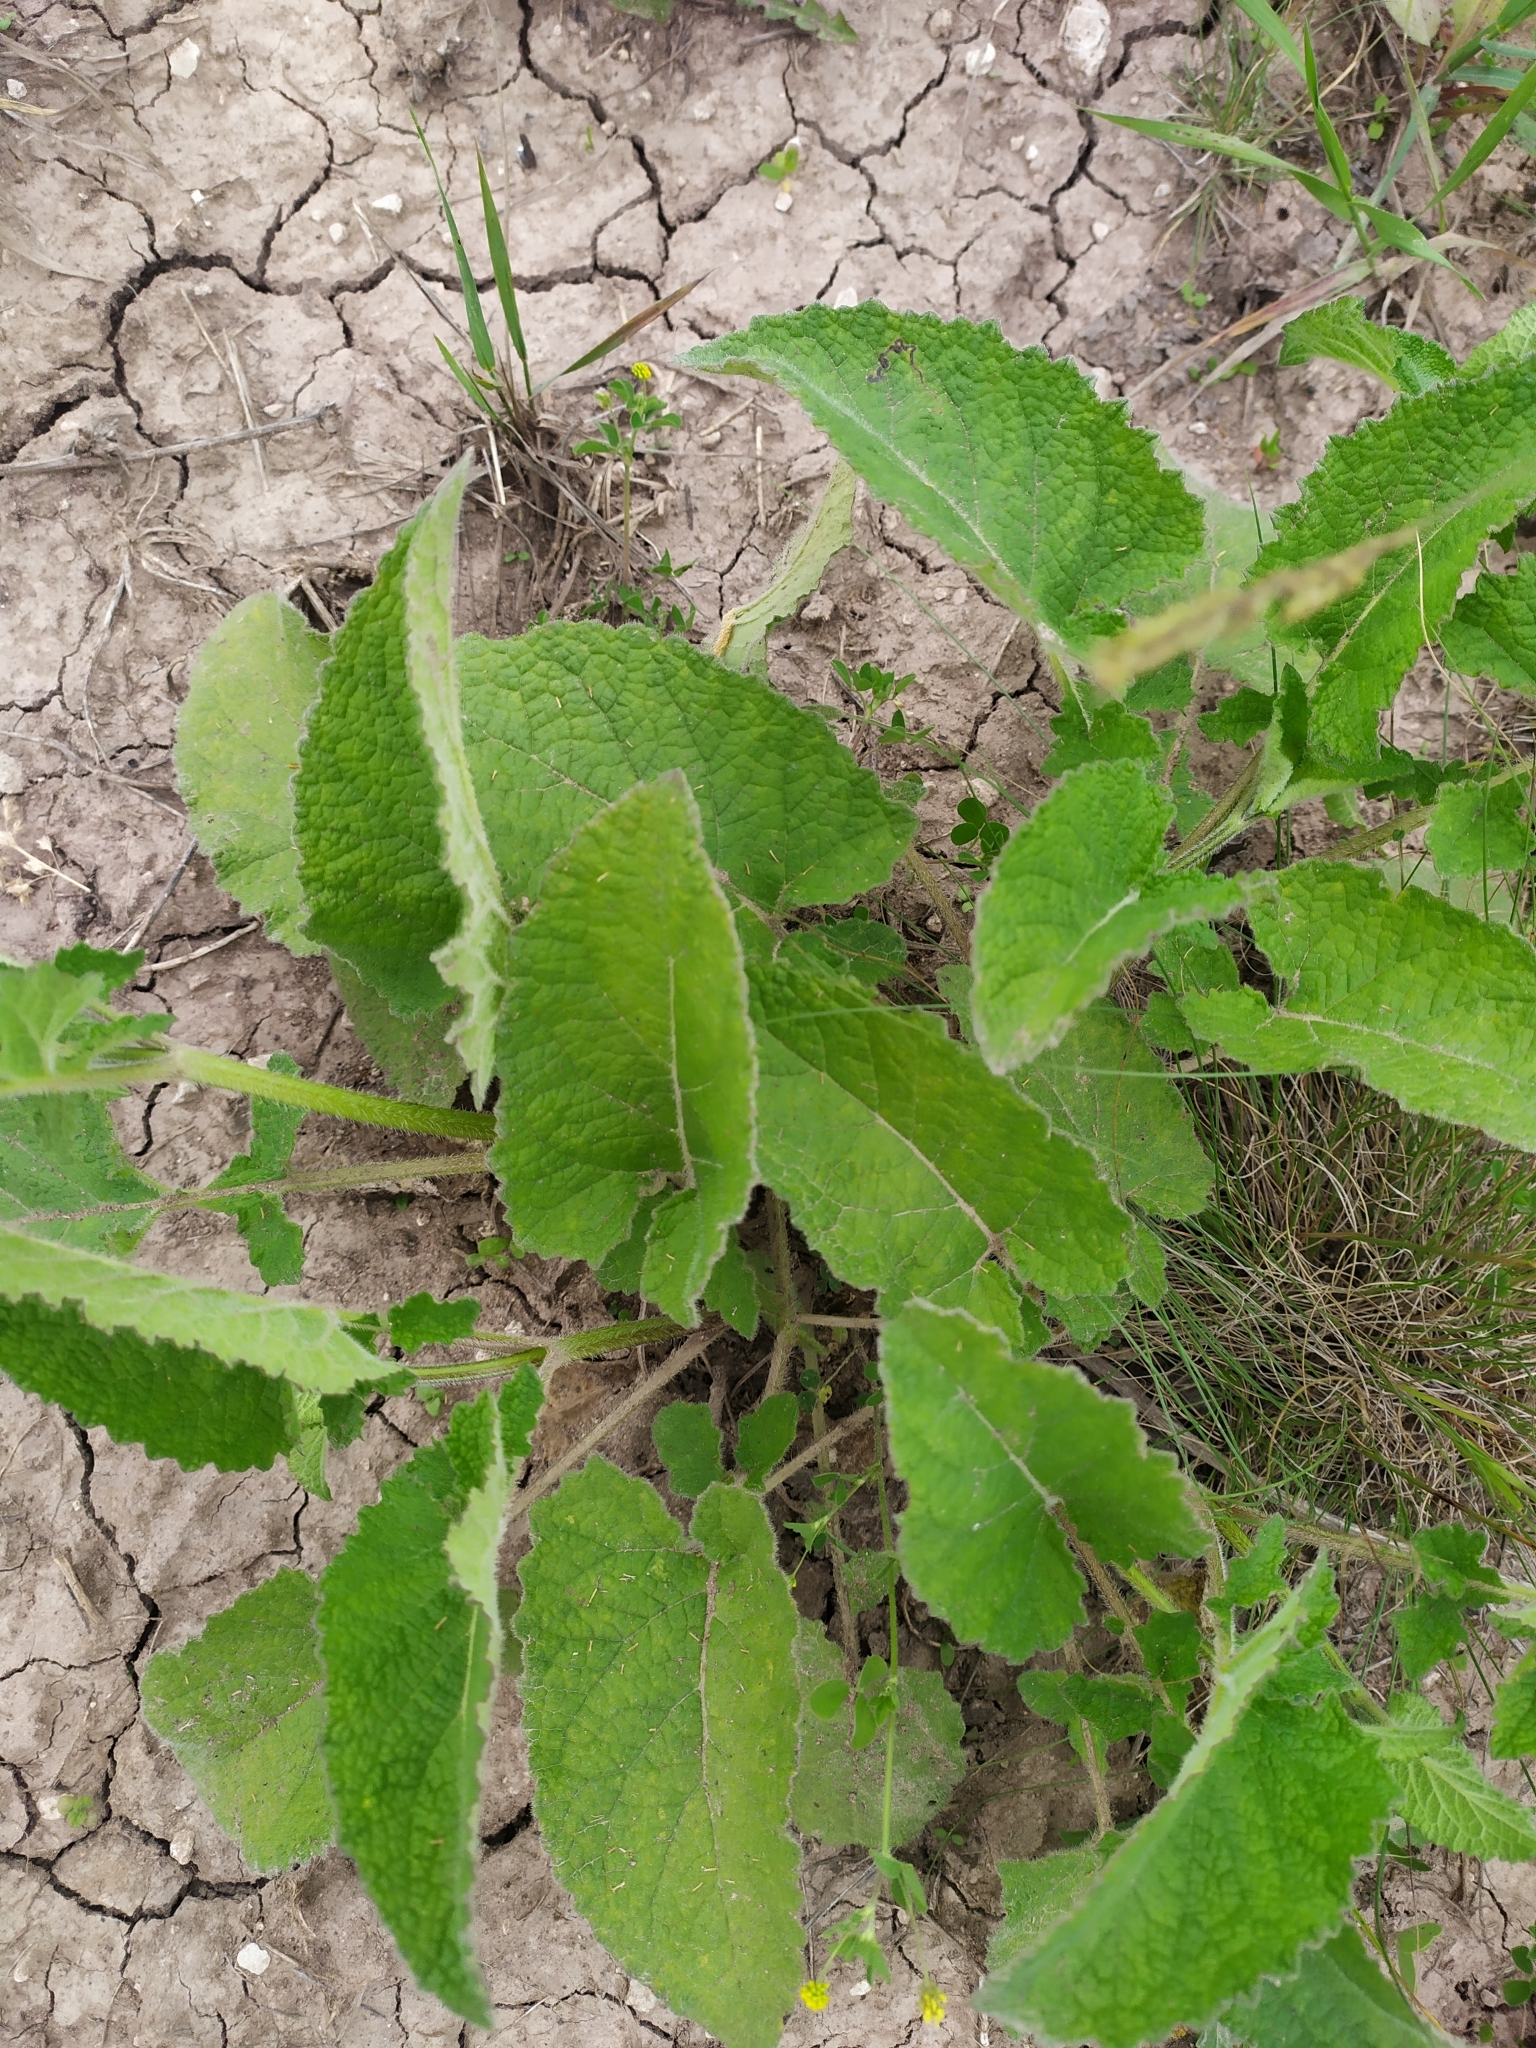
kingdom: Plantae
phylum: Tracheophyta
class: Magnoliopsida
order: Lamiales
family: Lamiaceae
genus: Salvia
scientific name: Salvia verticillata
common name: Whorled clary
